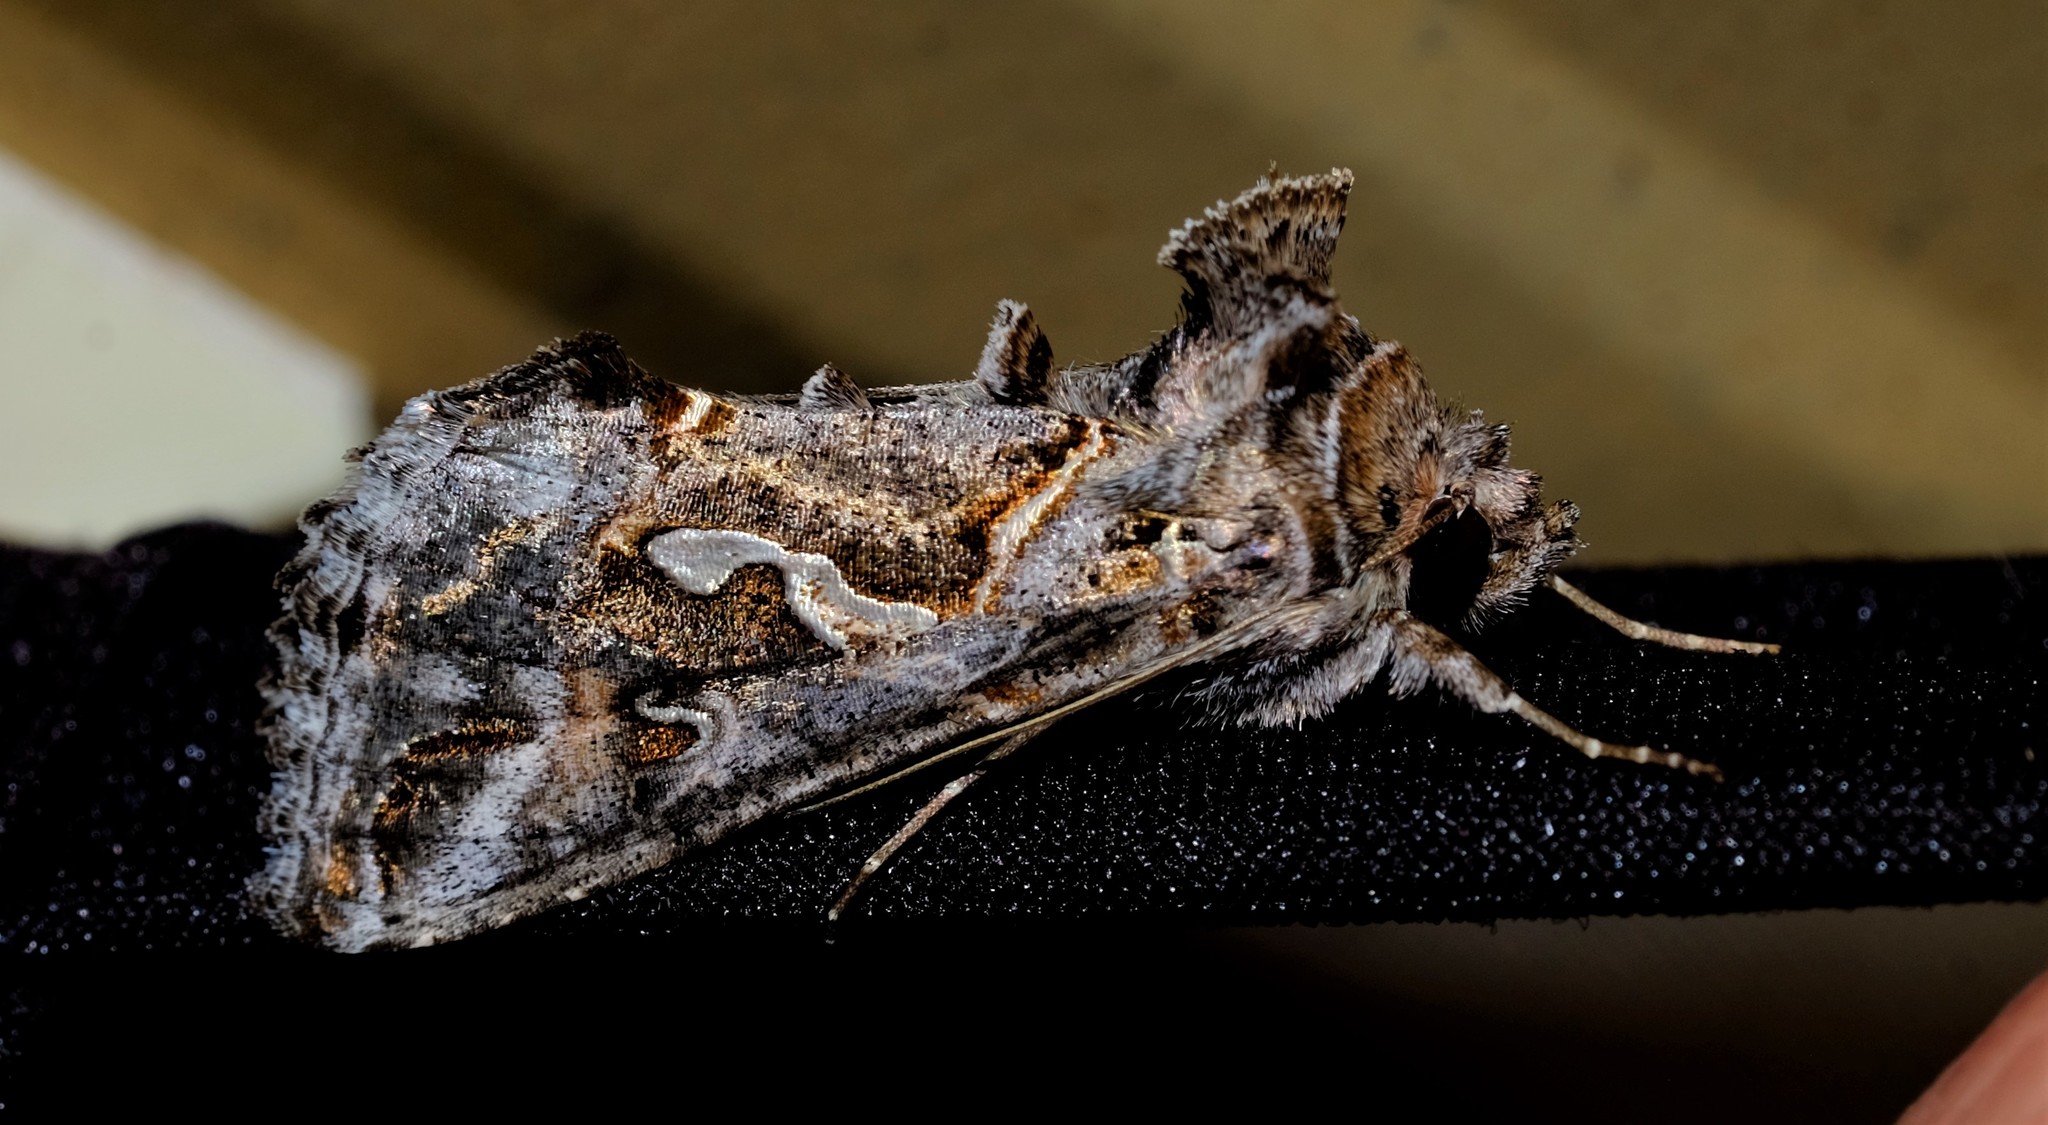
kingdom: Animalia
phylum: Arthropoda
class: Insecta
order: Lepidoptera
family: Noctuidae
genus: Chrysodeixis
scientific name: Chrysodeixis argentifera
